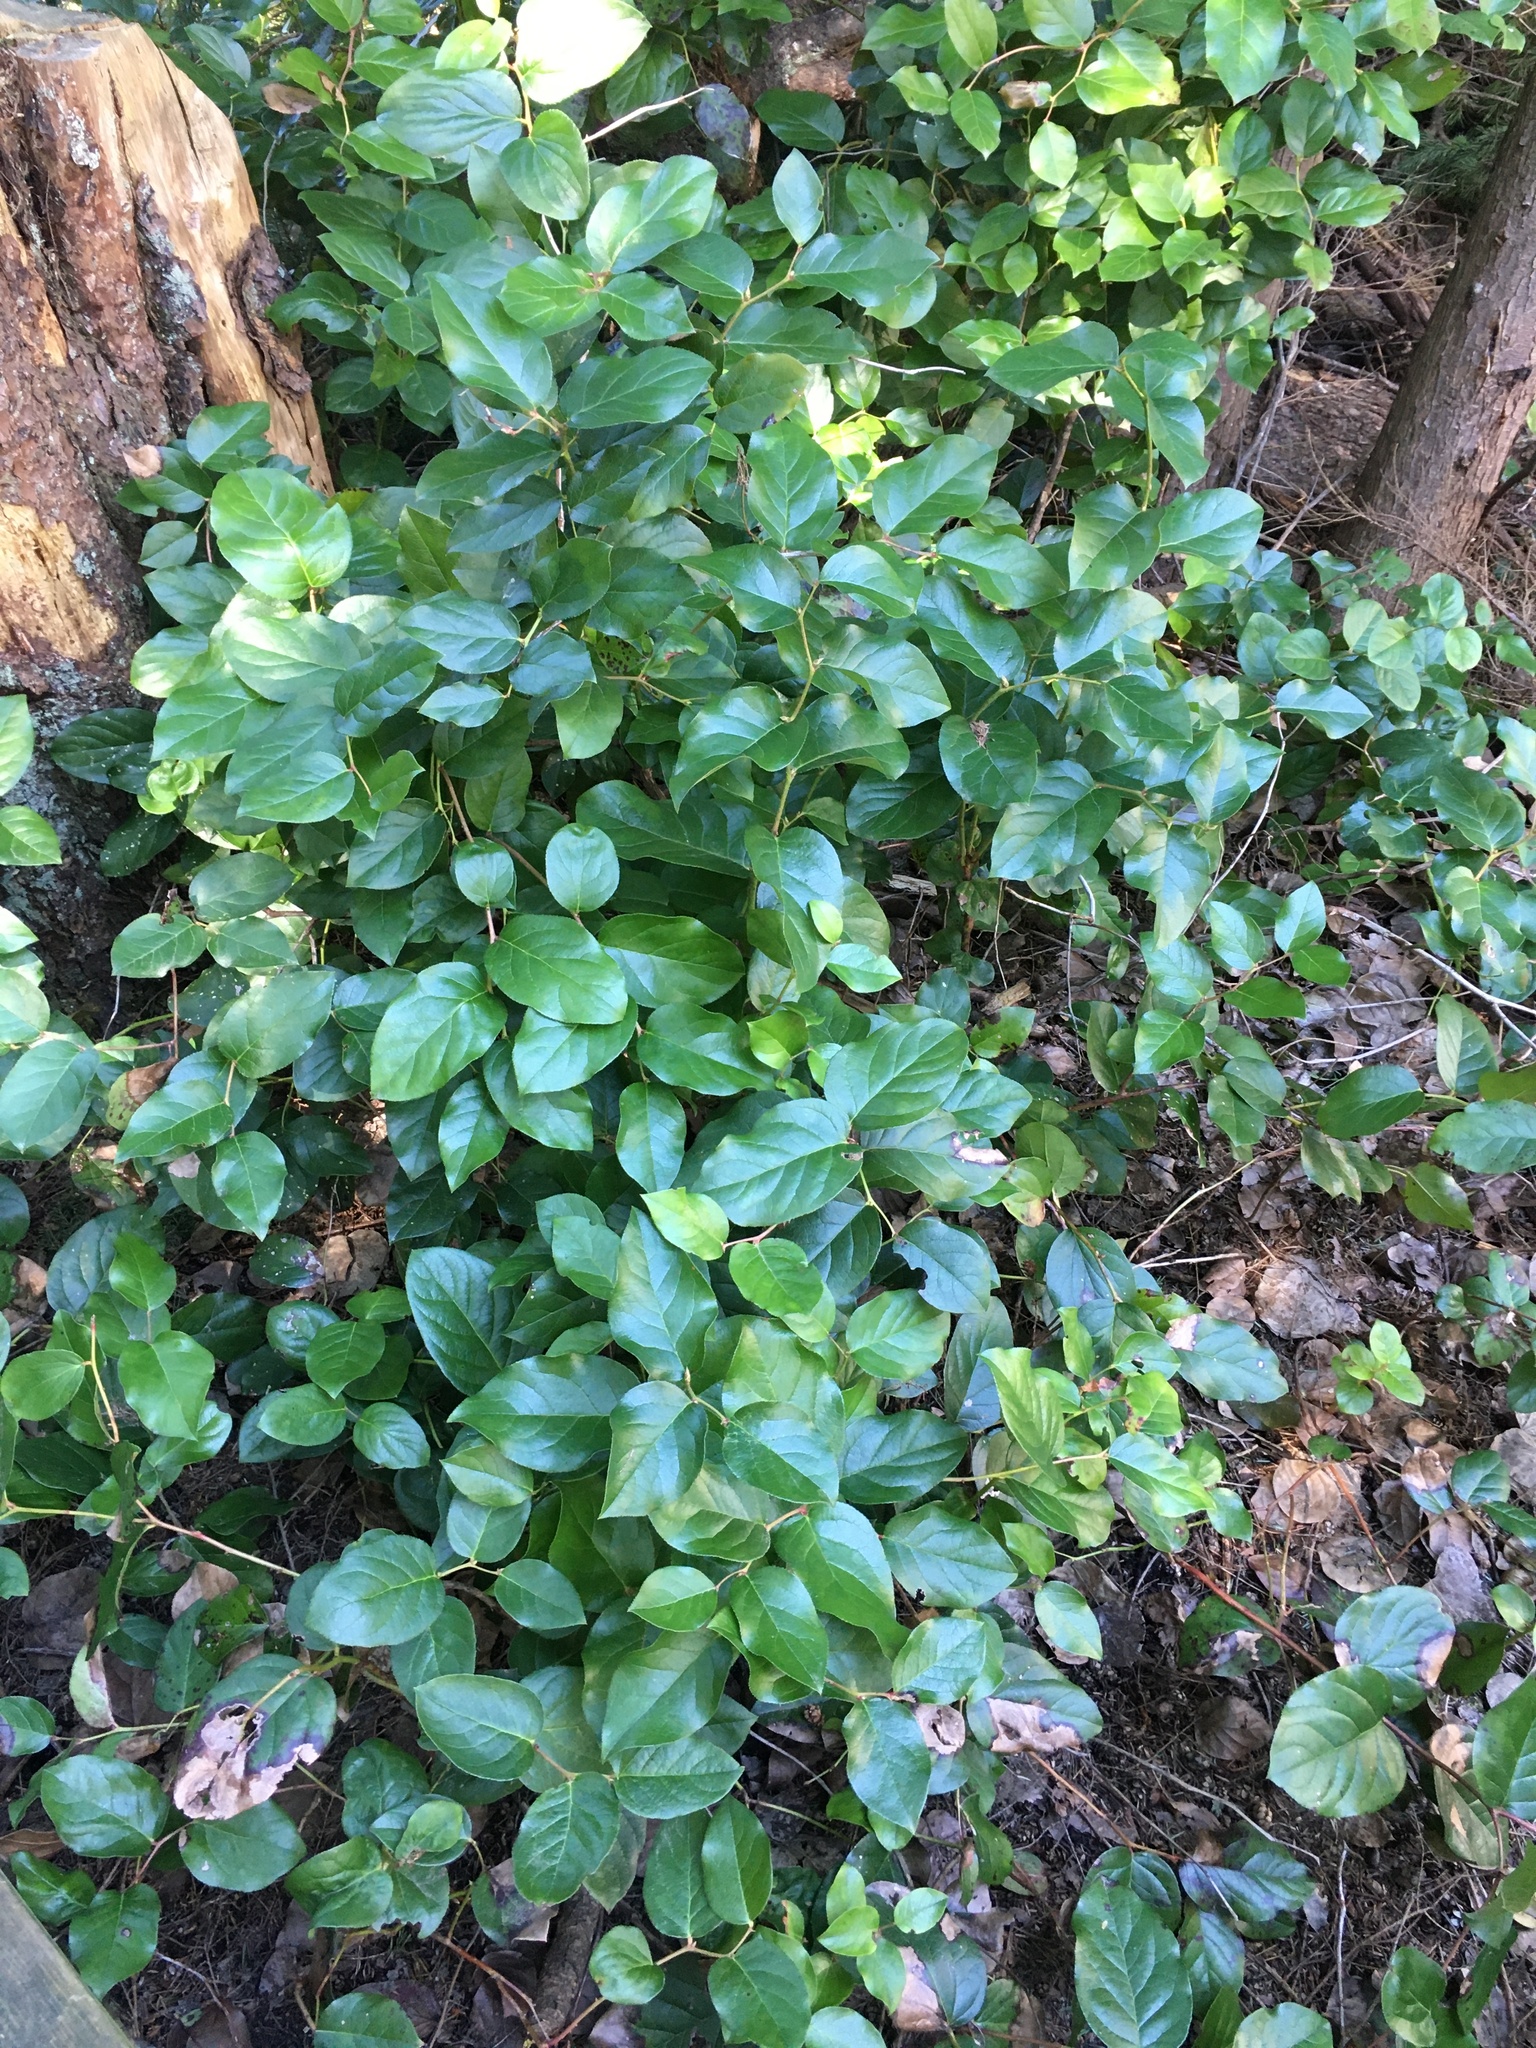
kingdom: Plantae
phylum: Tracheophyta
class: Magnoliopsida
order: Ericales
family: Ericaceae
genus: Gaultheria
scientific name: Gaultheria shallon
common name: Shallon
